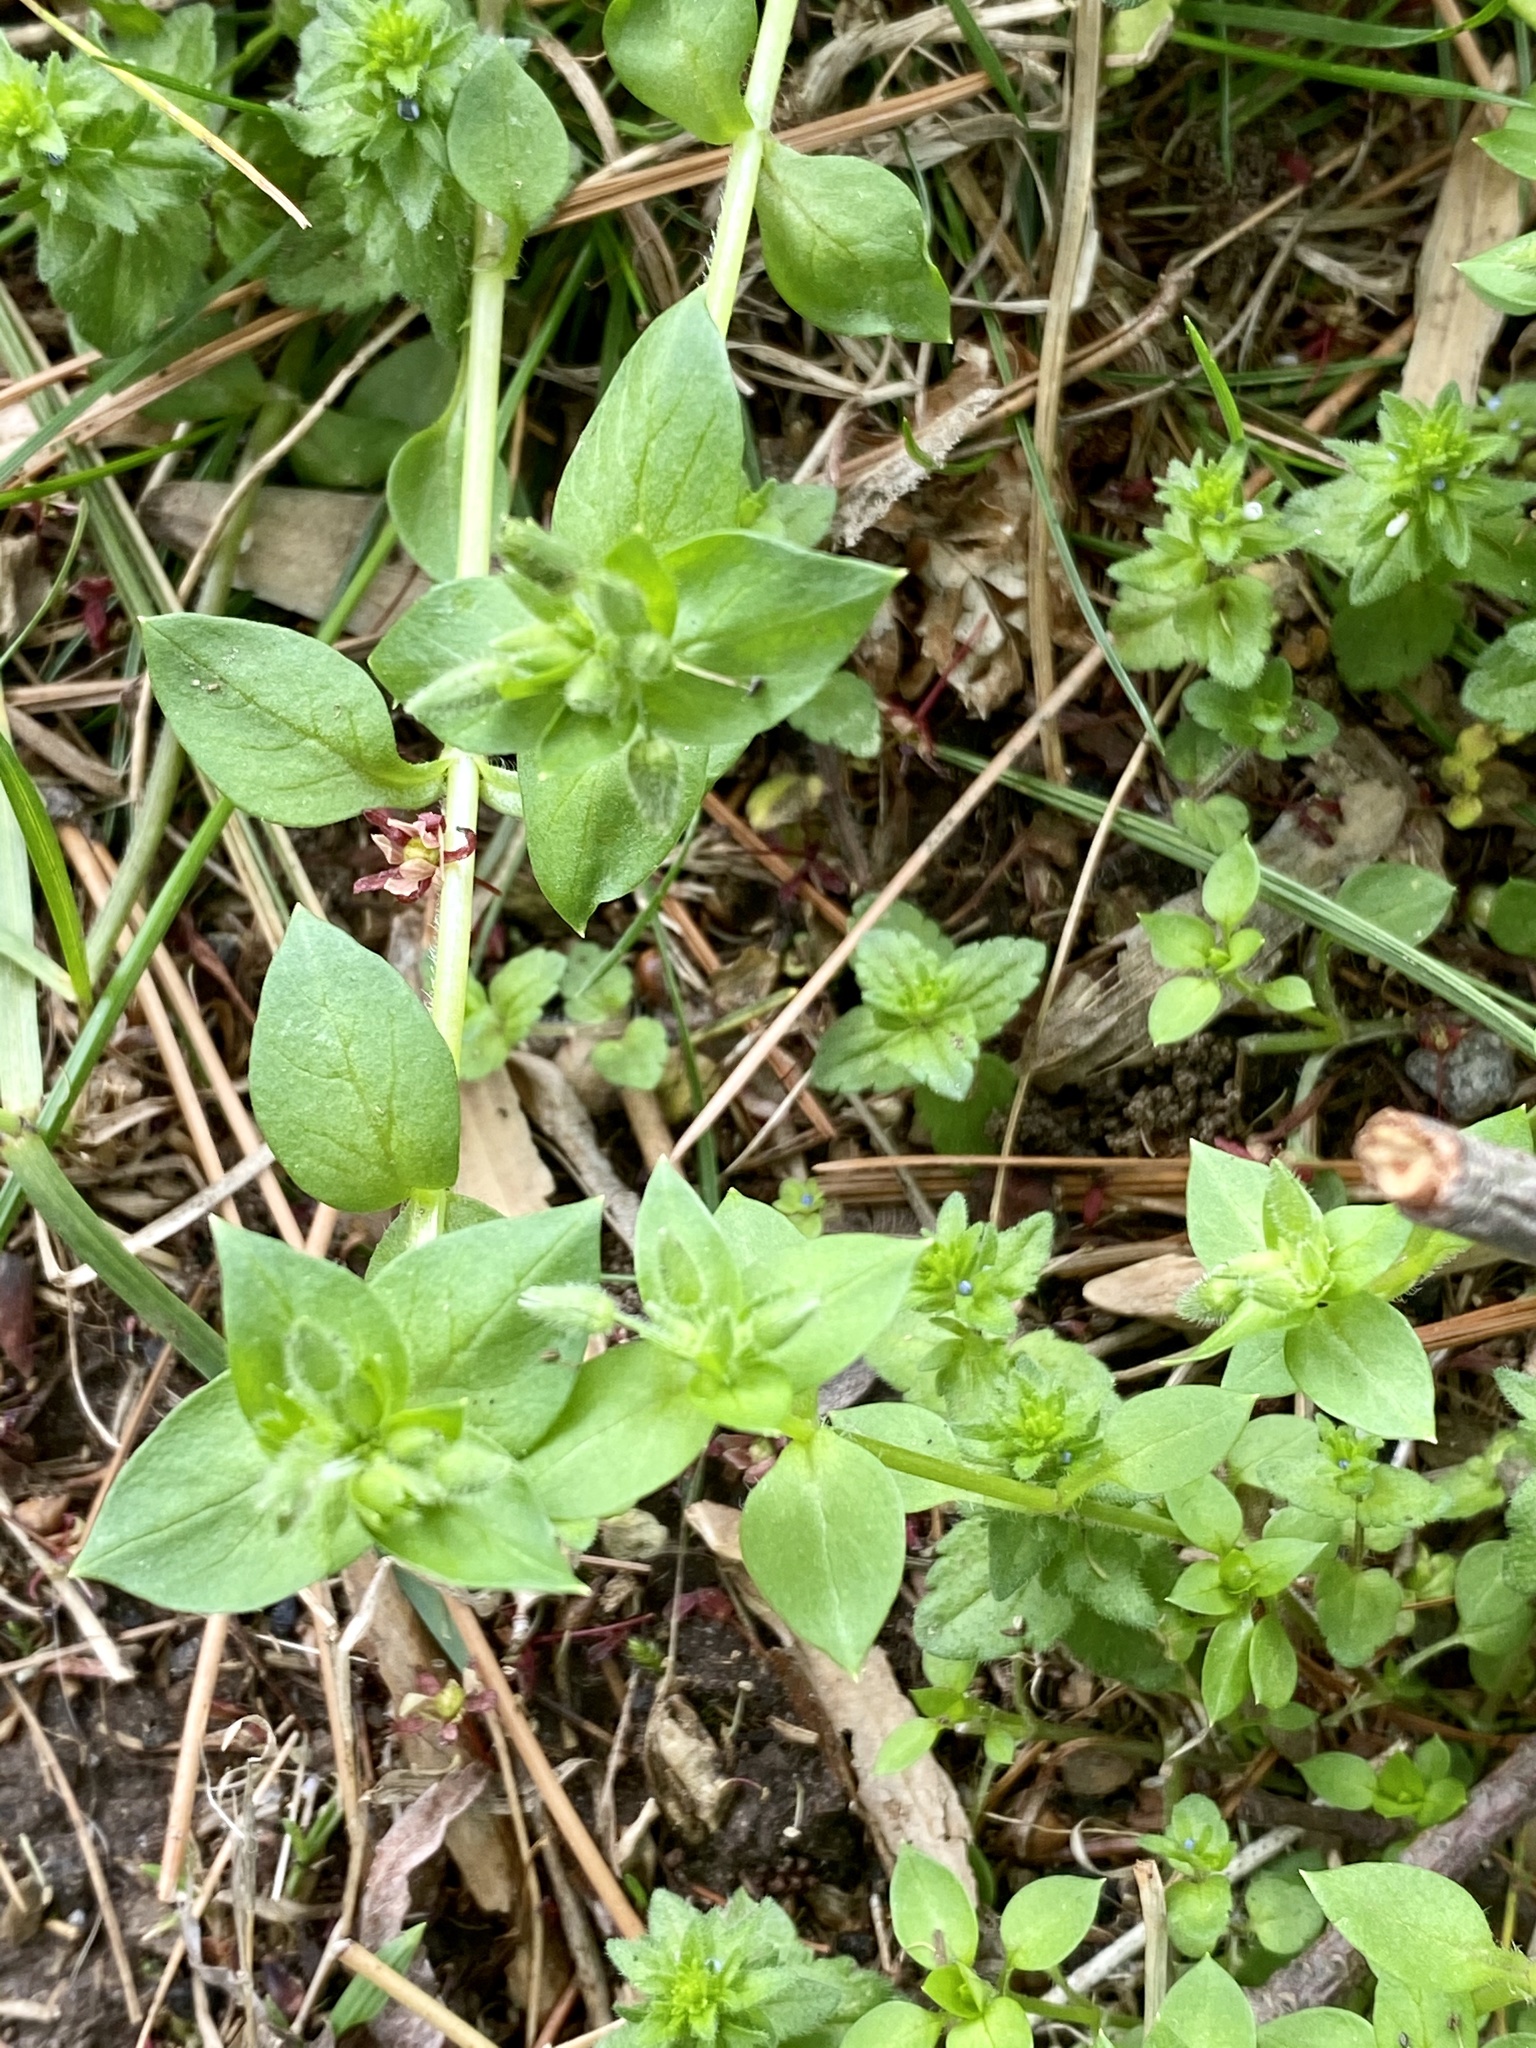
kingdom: Plantae
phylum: Tracheophyta
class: Magnoliopsida
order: Caryophyllales
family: Caryophyllaceae
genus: Stellaria
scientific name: Stellaria media
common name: Common chickweed
